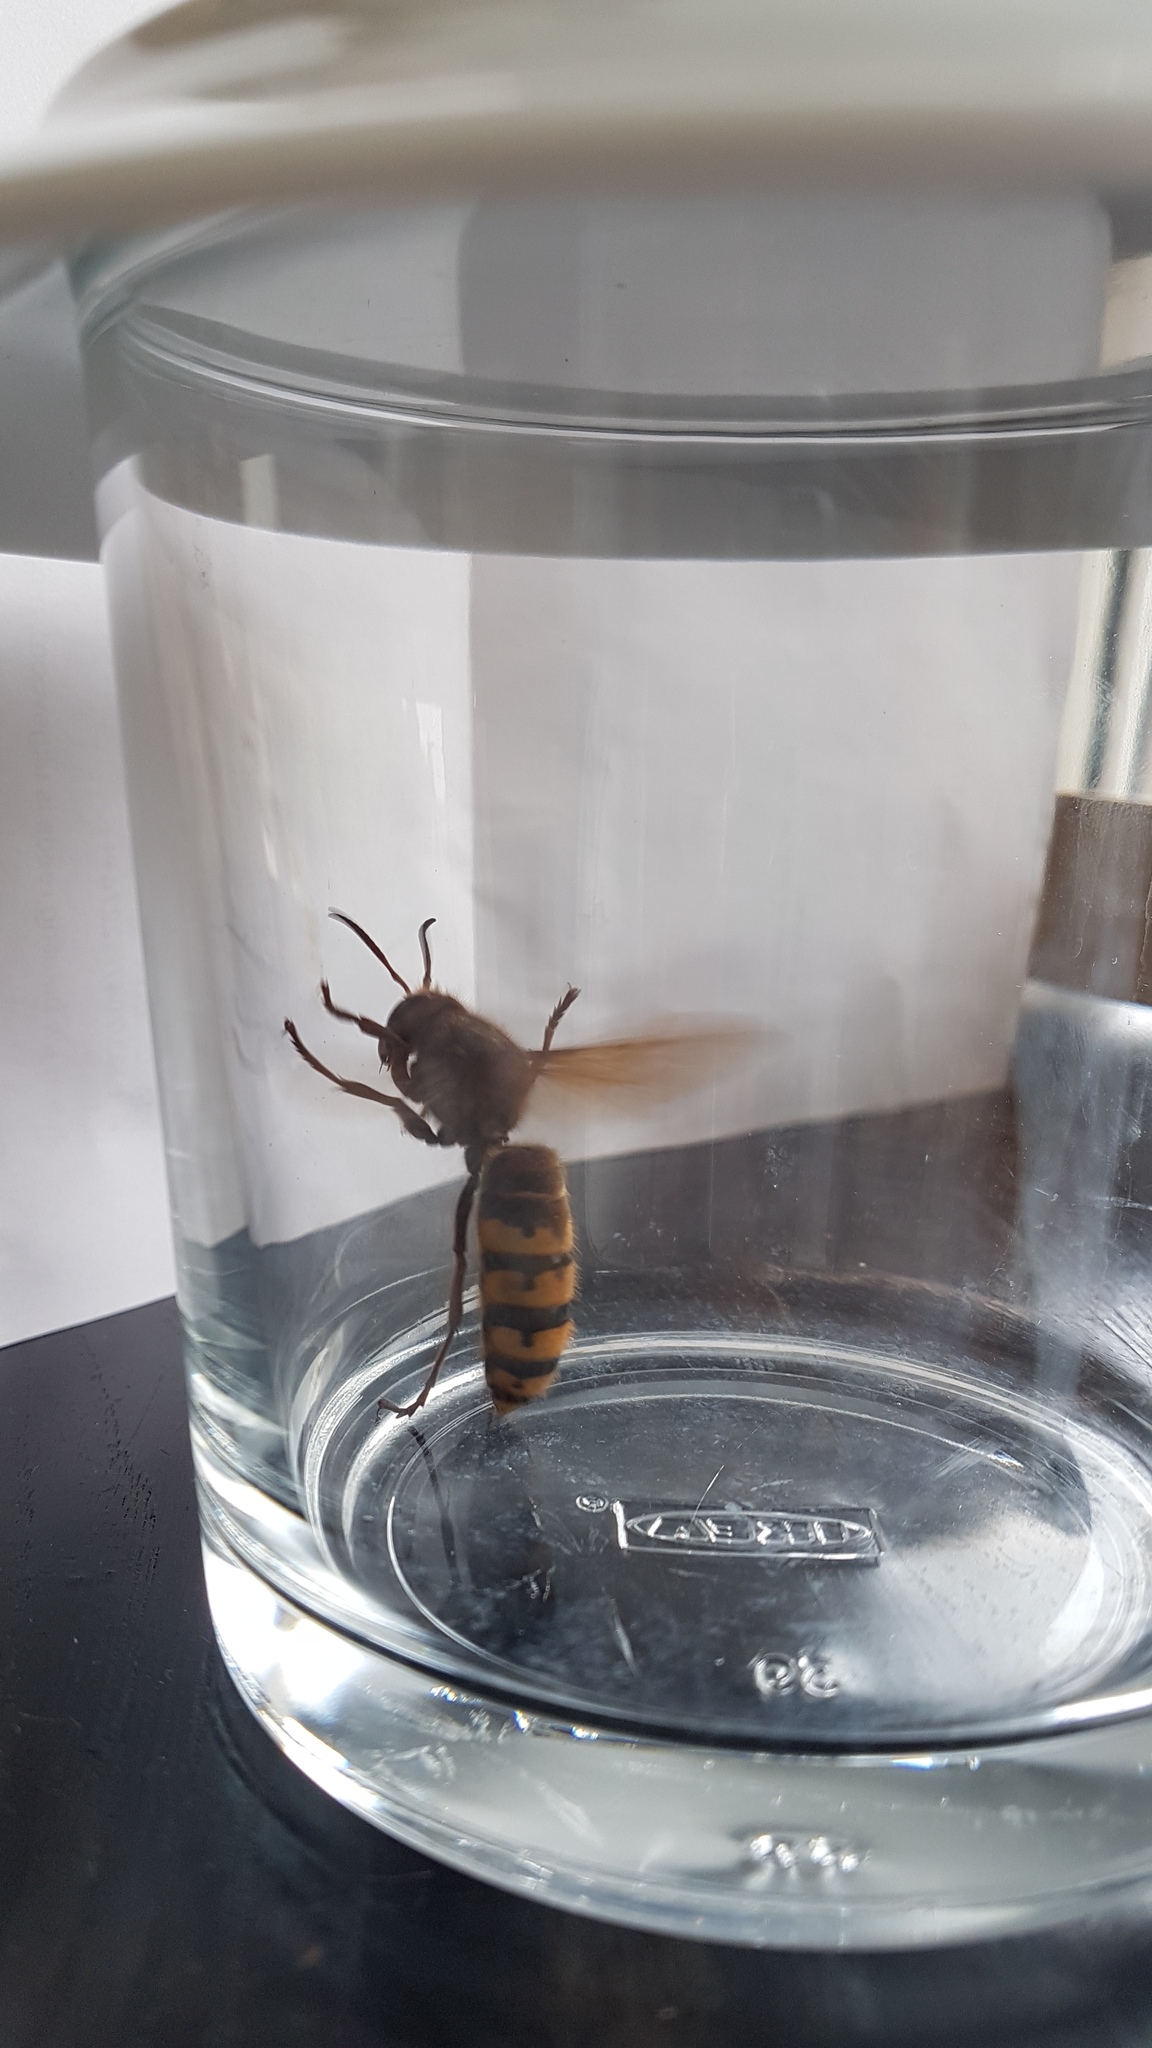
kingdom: Animalia
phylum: Arthropoda
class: Insecta
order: Hymenoptera
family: Vespidae
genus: Vespa
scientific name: Vespa crabro
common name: Hornet
